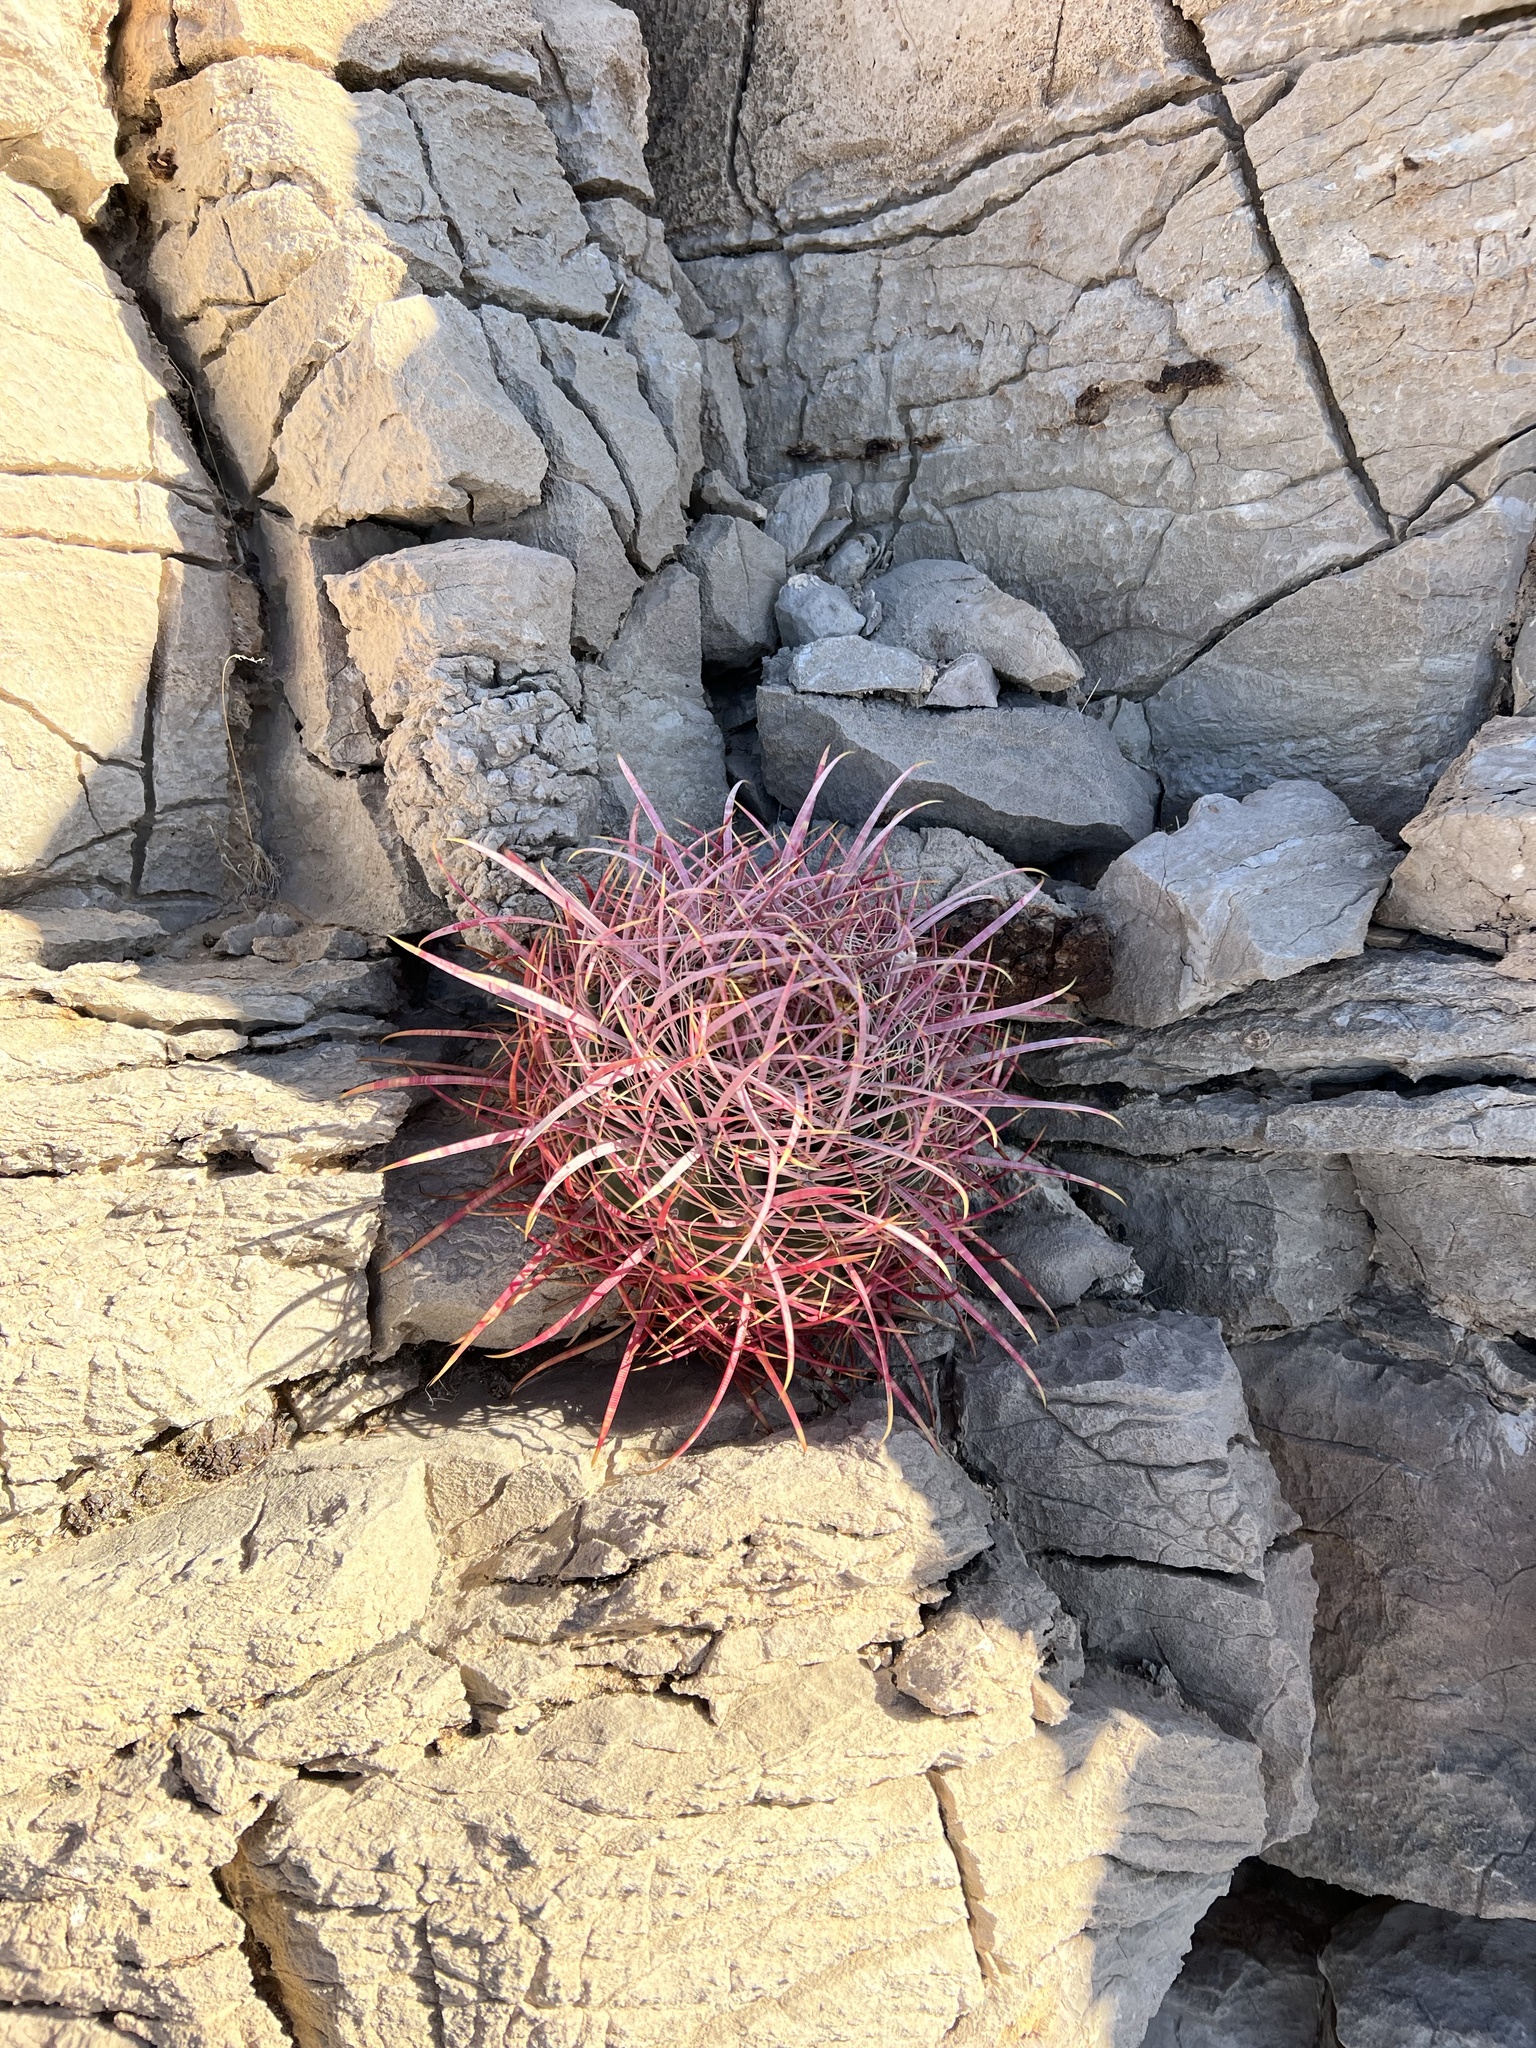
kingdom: Plantae
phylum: Tracheophyta
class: Magnoliopsida
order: Caryophyllales
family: Cactaceae
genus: Ferocactus
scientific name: Ferocactus cylindraceus
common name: California barrel cactus
